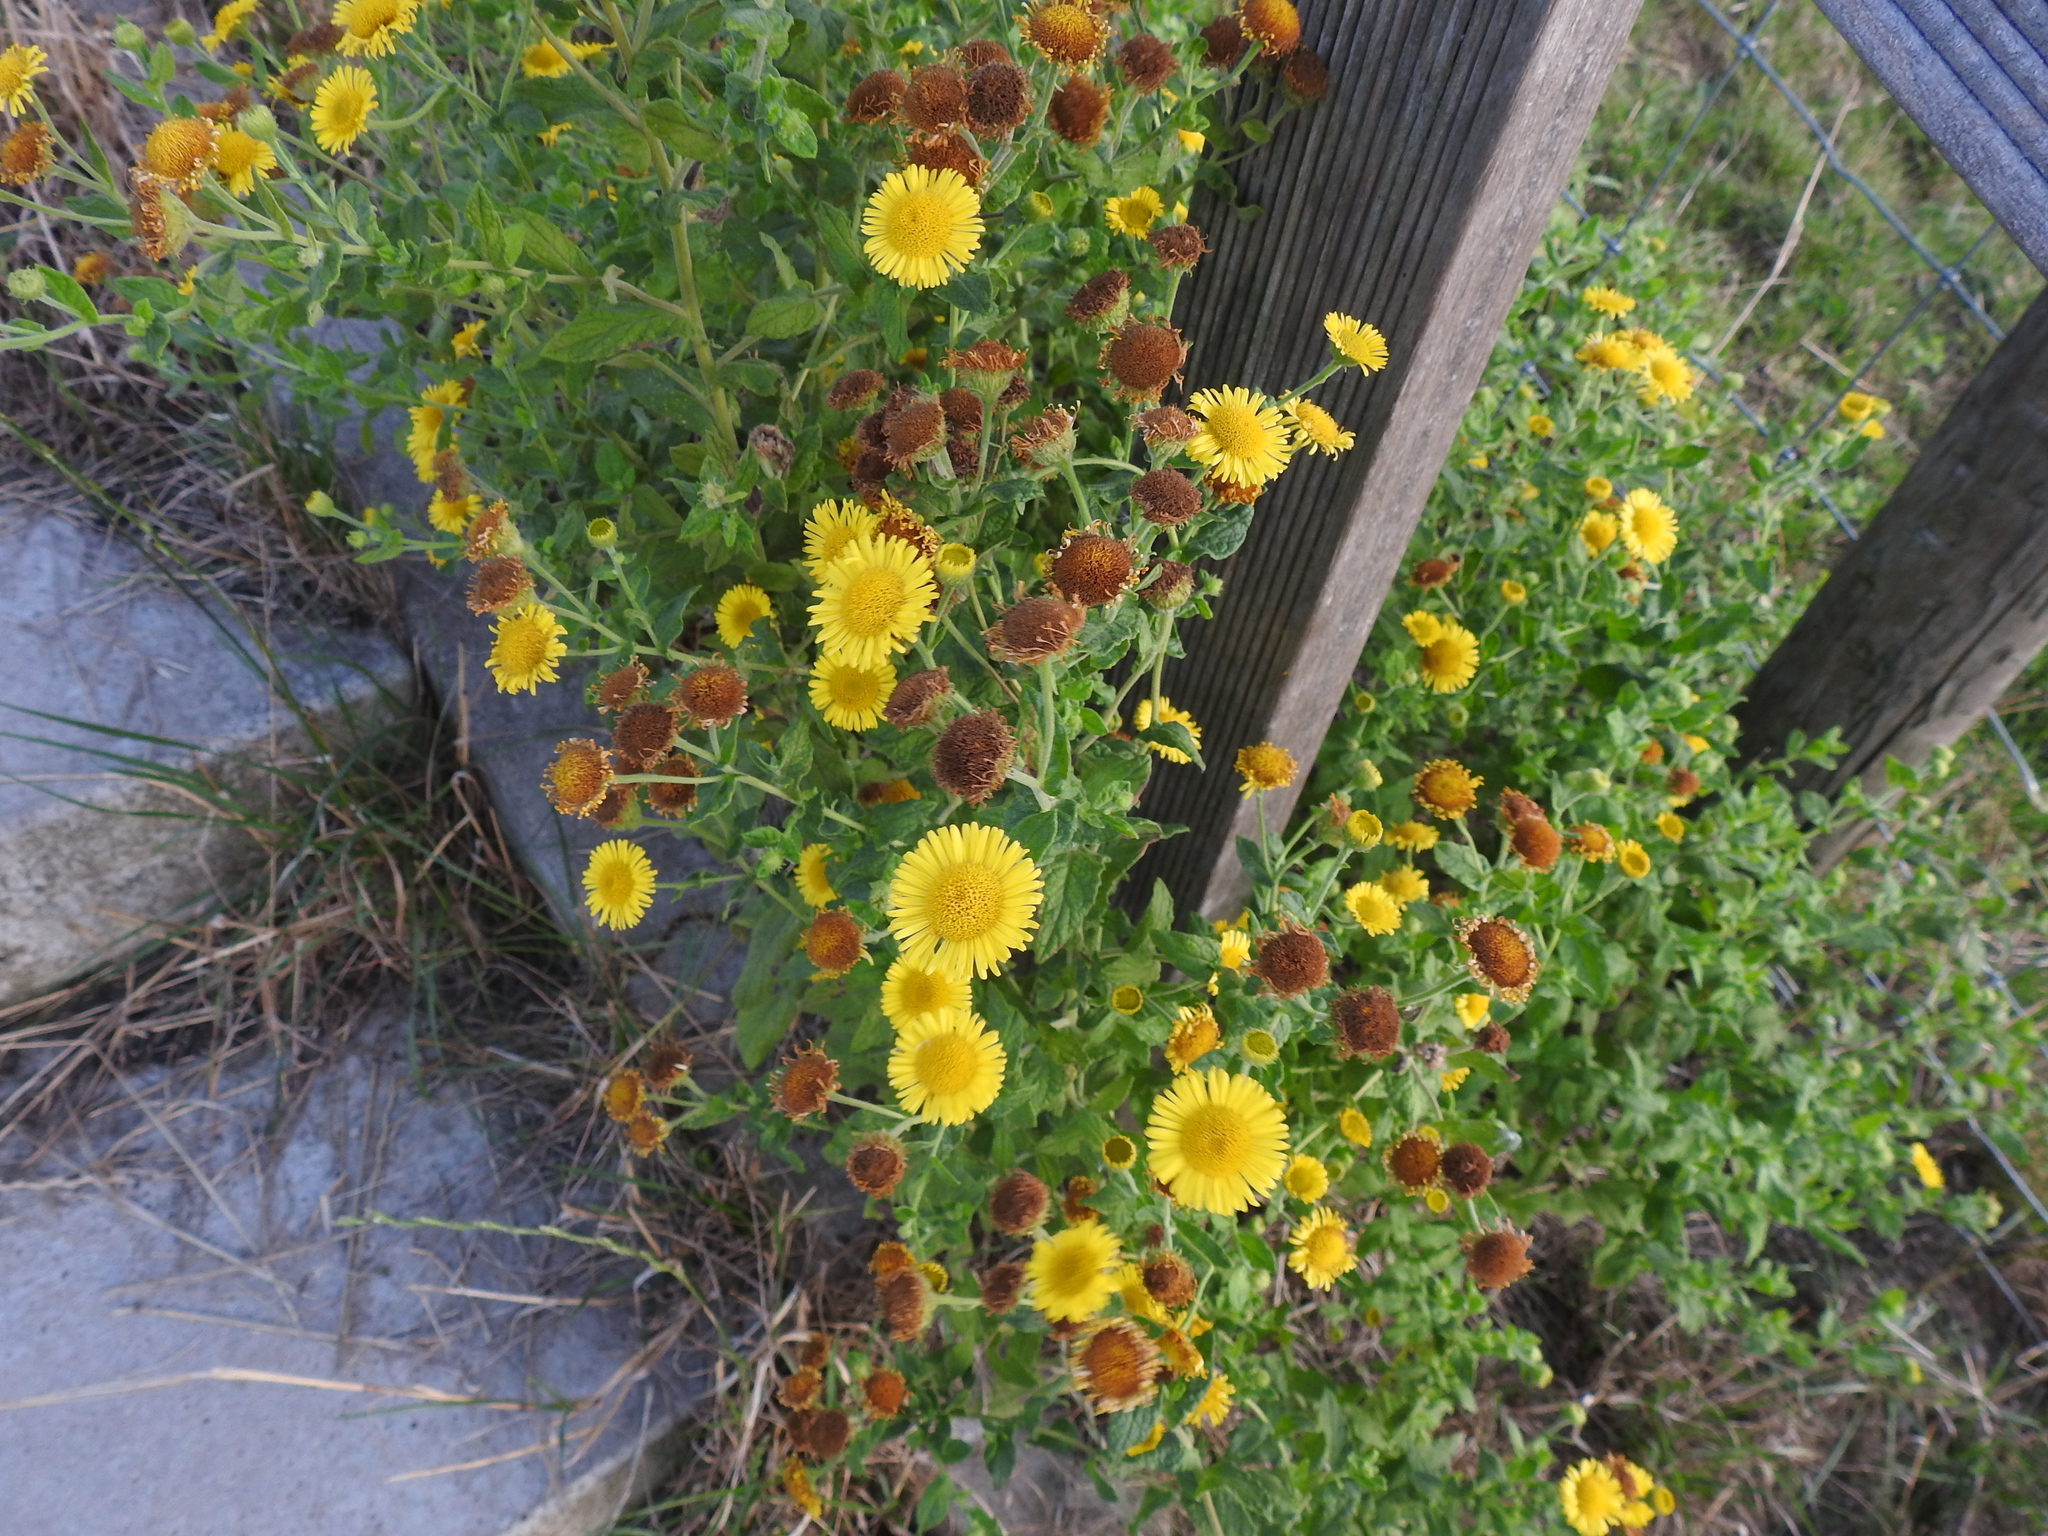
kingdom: Plantae
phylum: Tracheophyta
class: Magnoliopsida
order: Asterales
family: Asteraceae
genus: Pulicaria
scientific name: Pulicaria dysenterica
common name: Common fleabane
